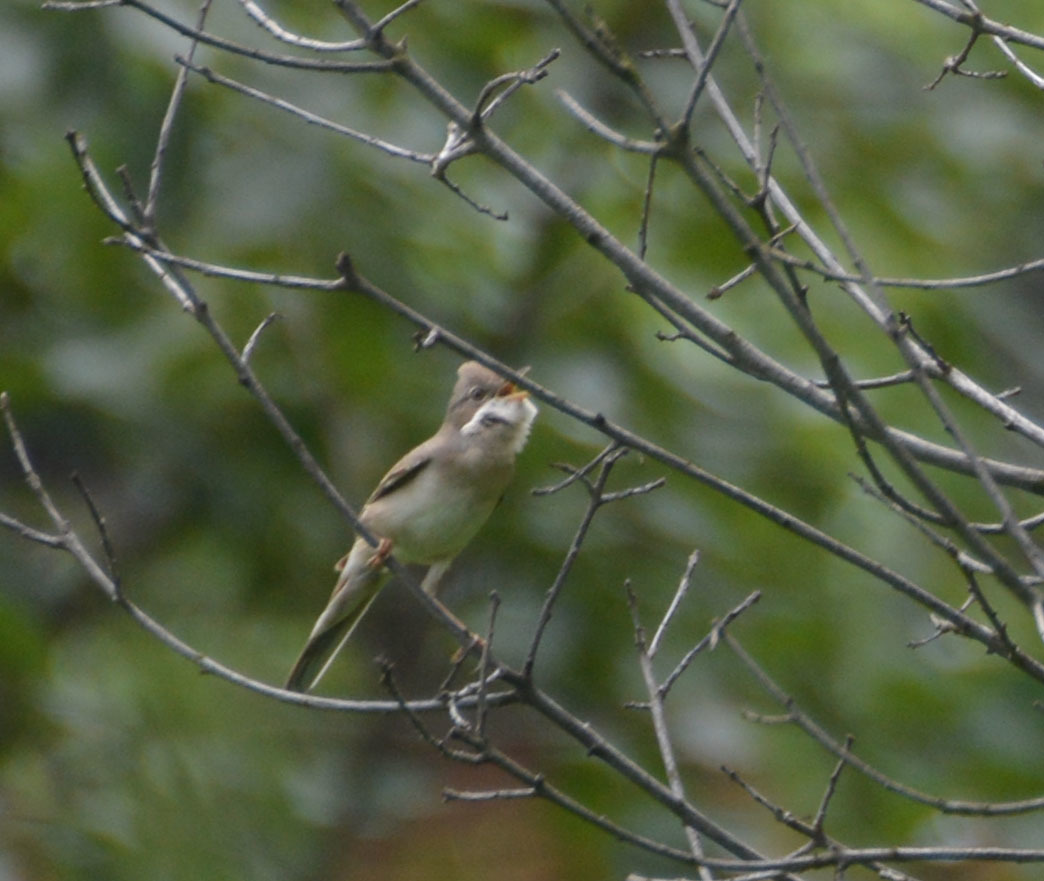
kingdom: Animalia
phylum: Chordata
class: Aves
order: Passeriformes
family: Sylviidae
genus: Sylvia
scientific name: Sylvia communis
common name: Common whitethroat
